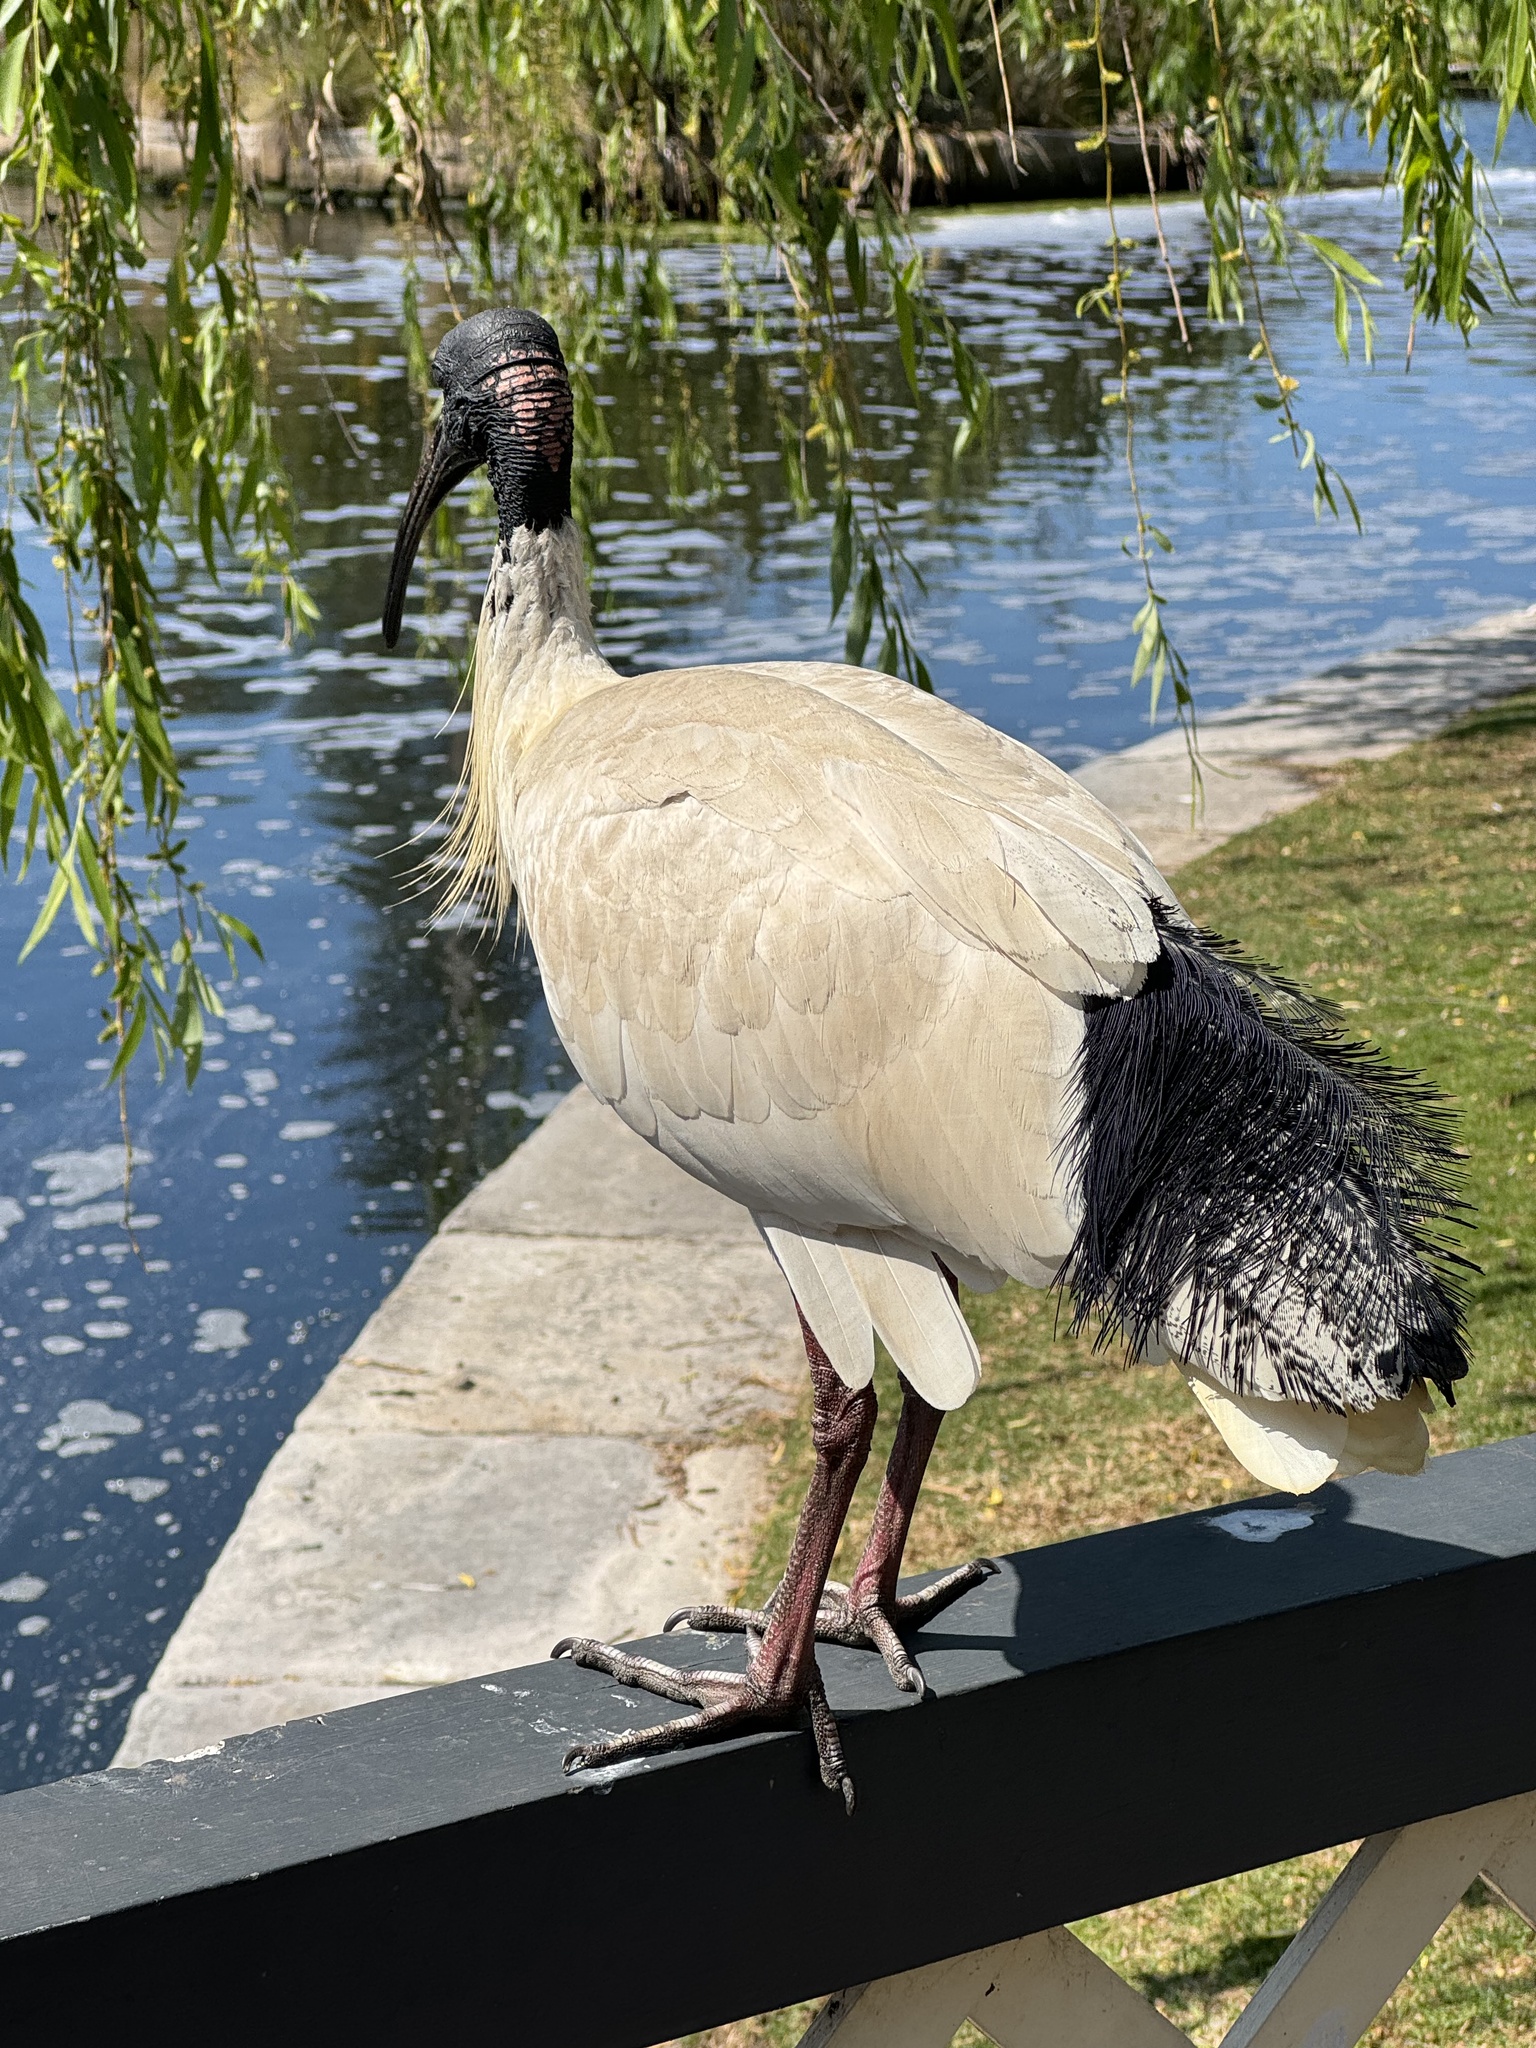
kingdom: Animalia
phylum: Chordata
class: Aves
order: Pelecaniformes
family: Threskiornithidae
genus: Threskiornis
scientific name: Threskiornis molucca
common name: Australian white ibis
